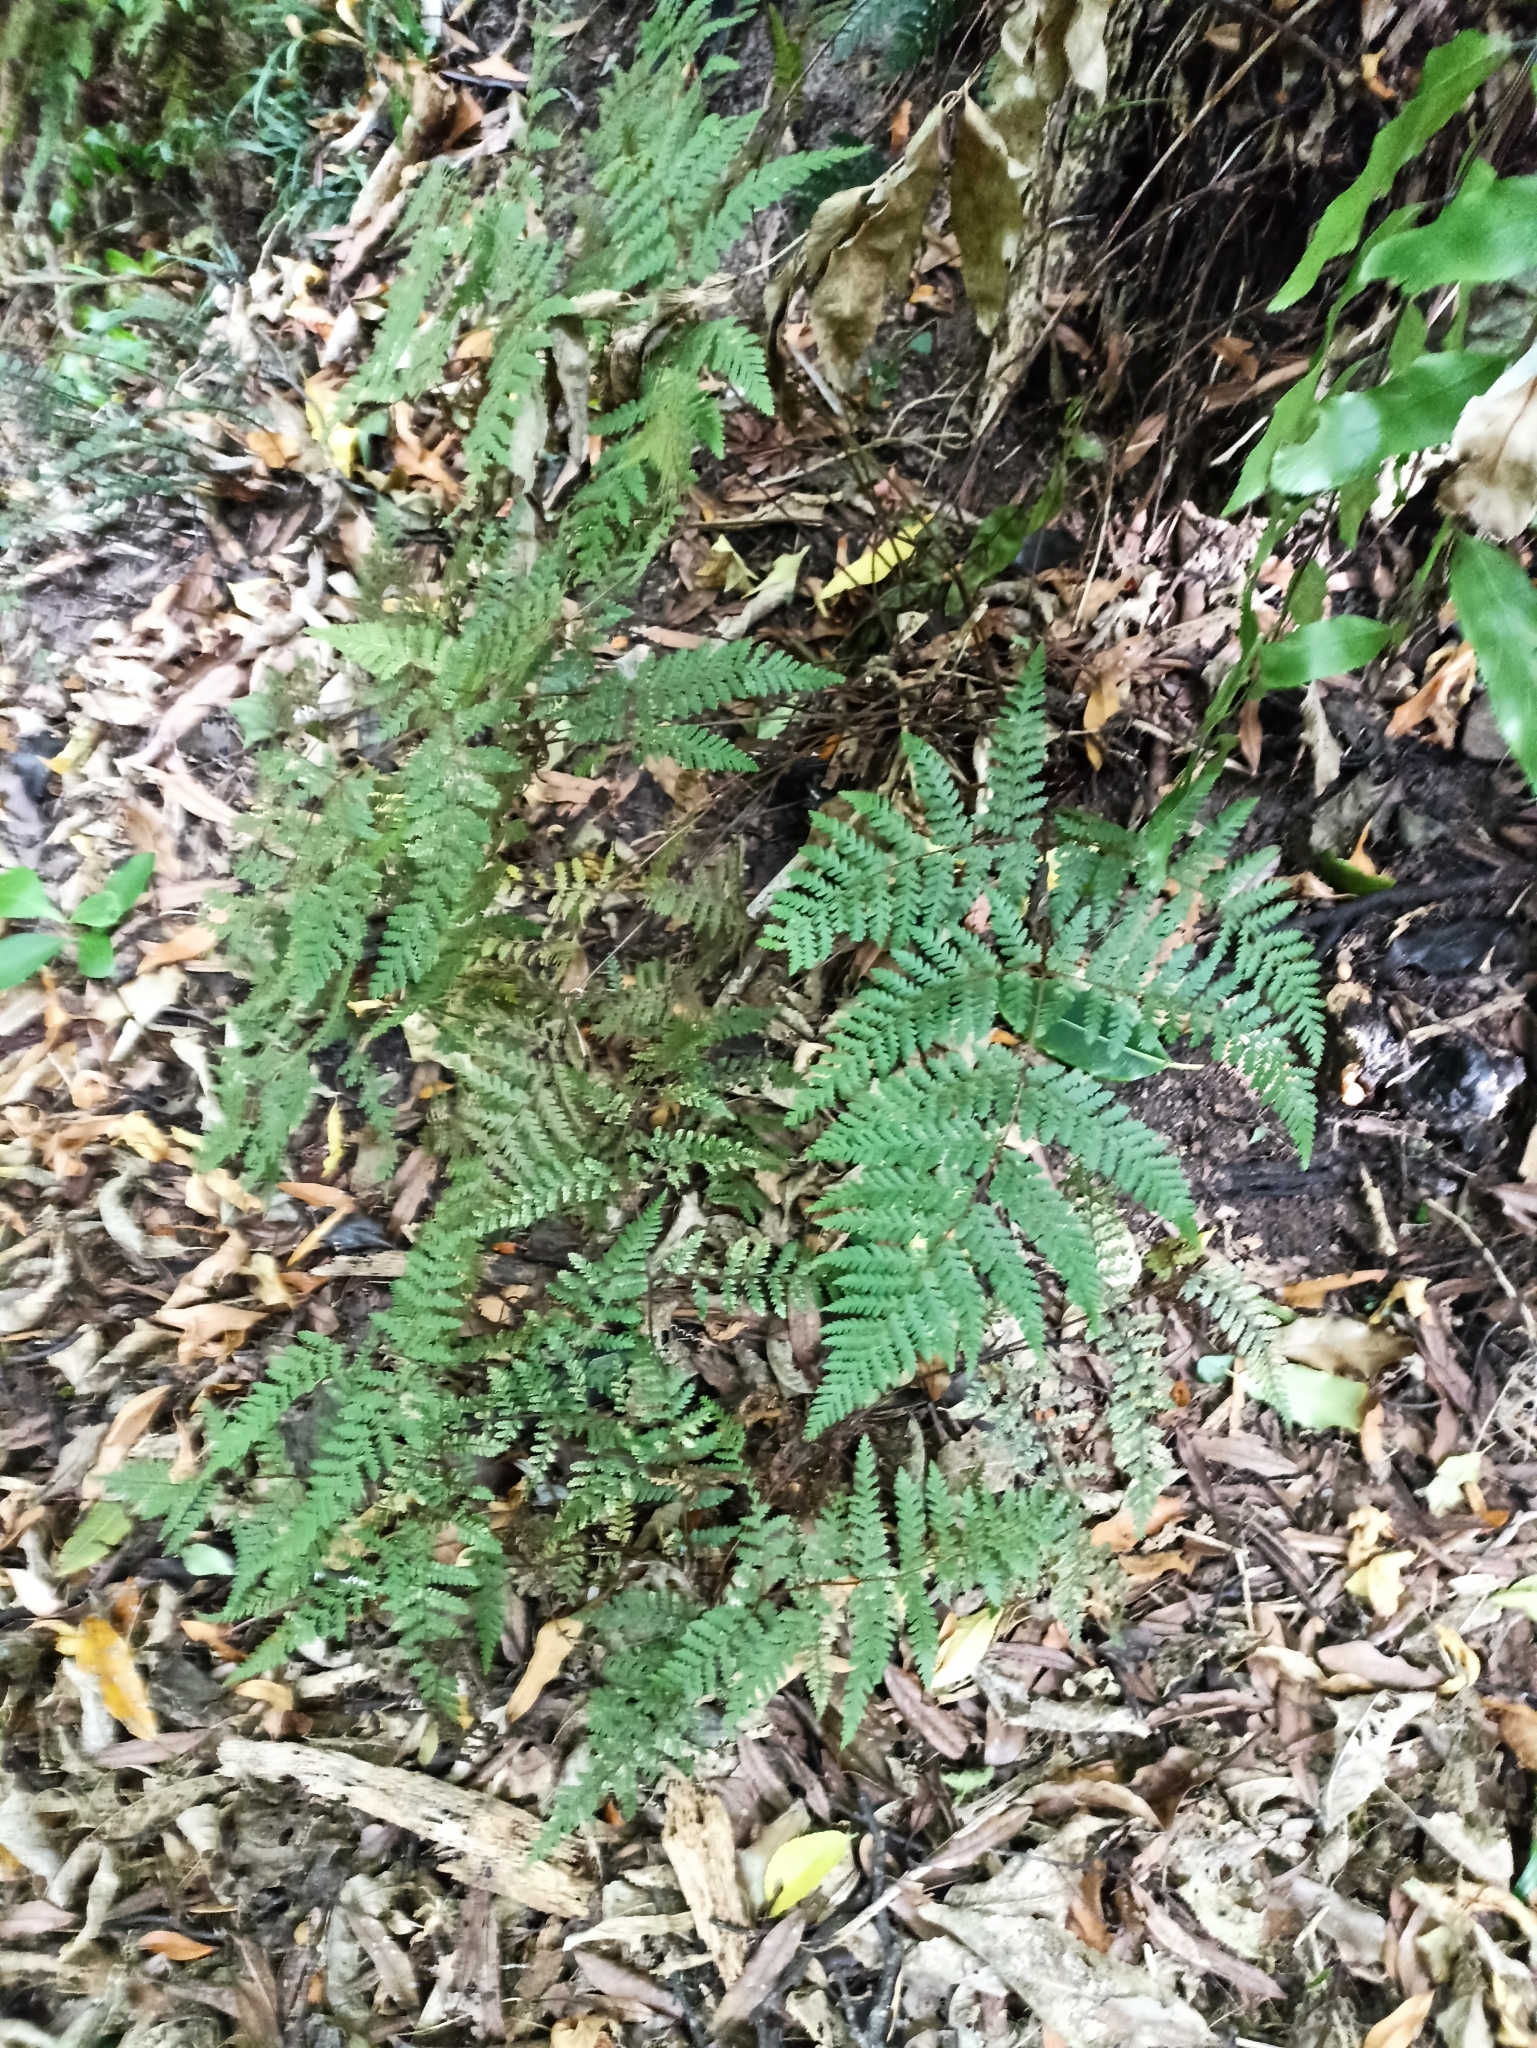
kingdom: Plantae
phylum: Tracheophyta
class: Polypodiopsida
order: Polypodiales
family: Dryopteridaceae
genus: Lastreopsis
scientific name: Lastreopsis velutina
